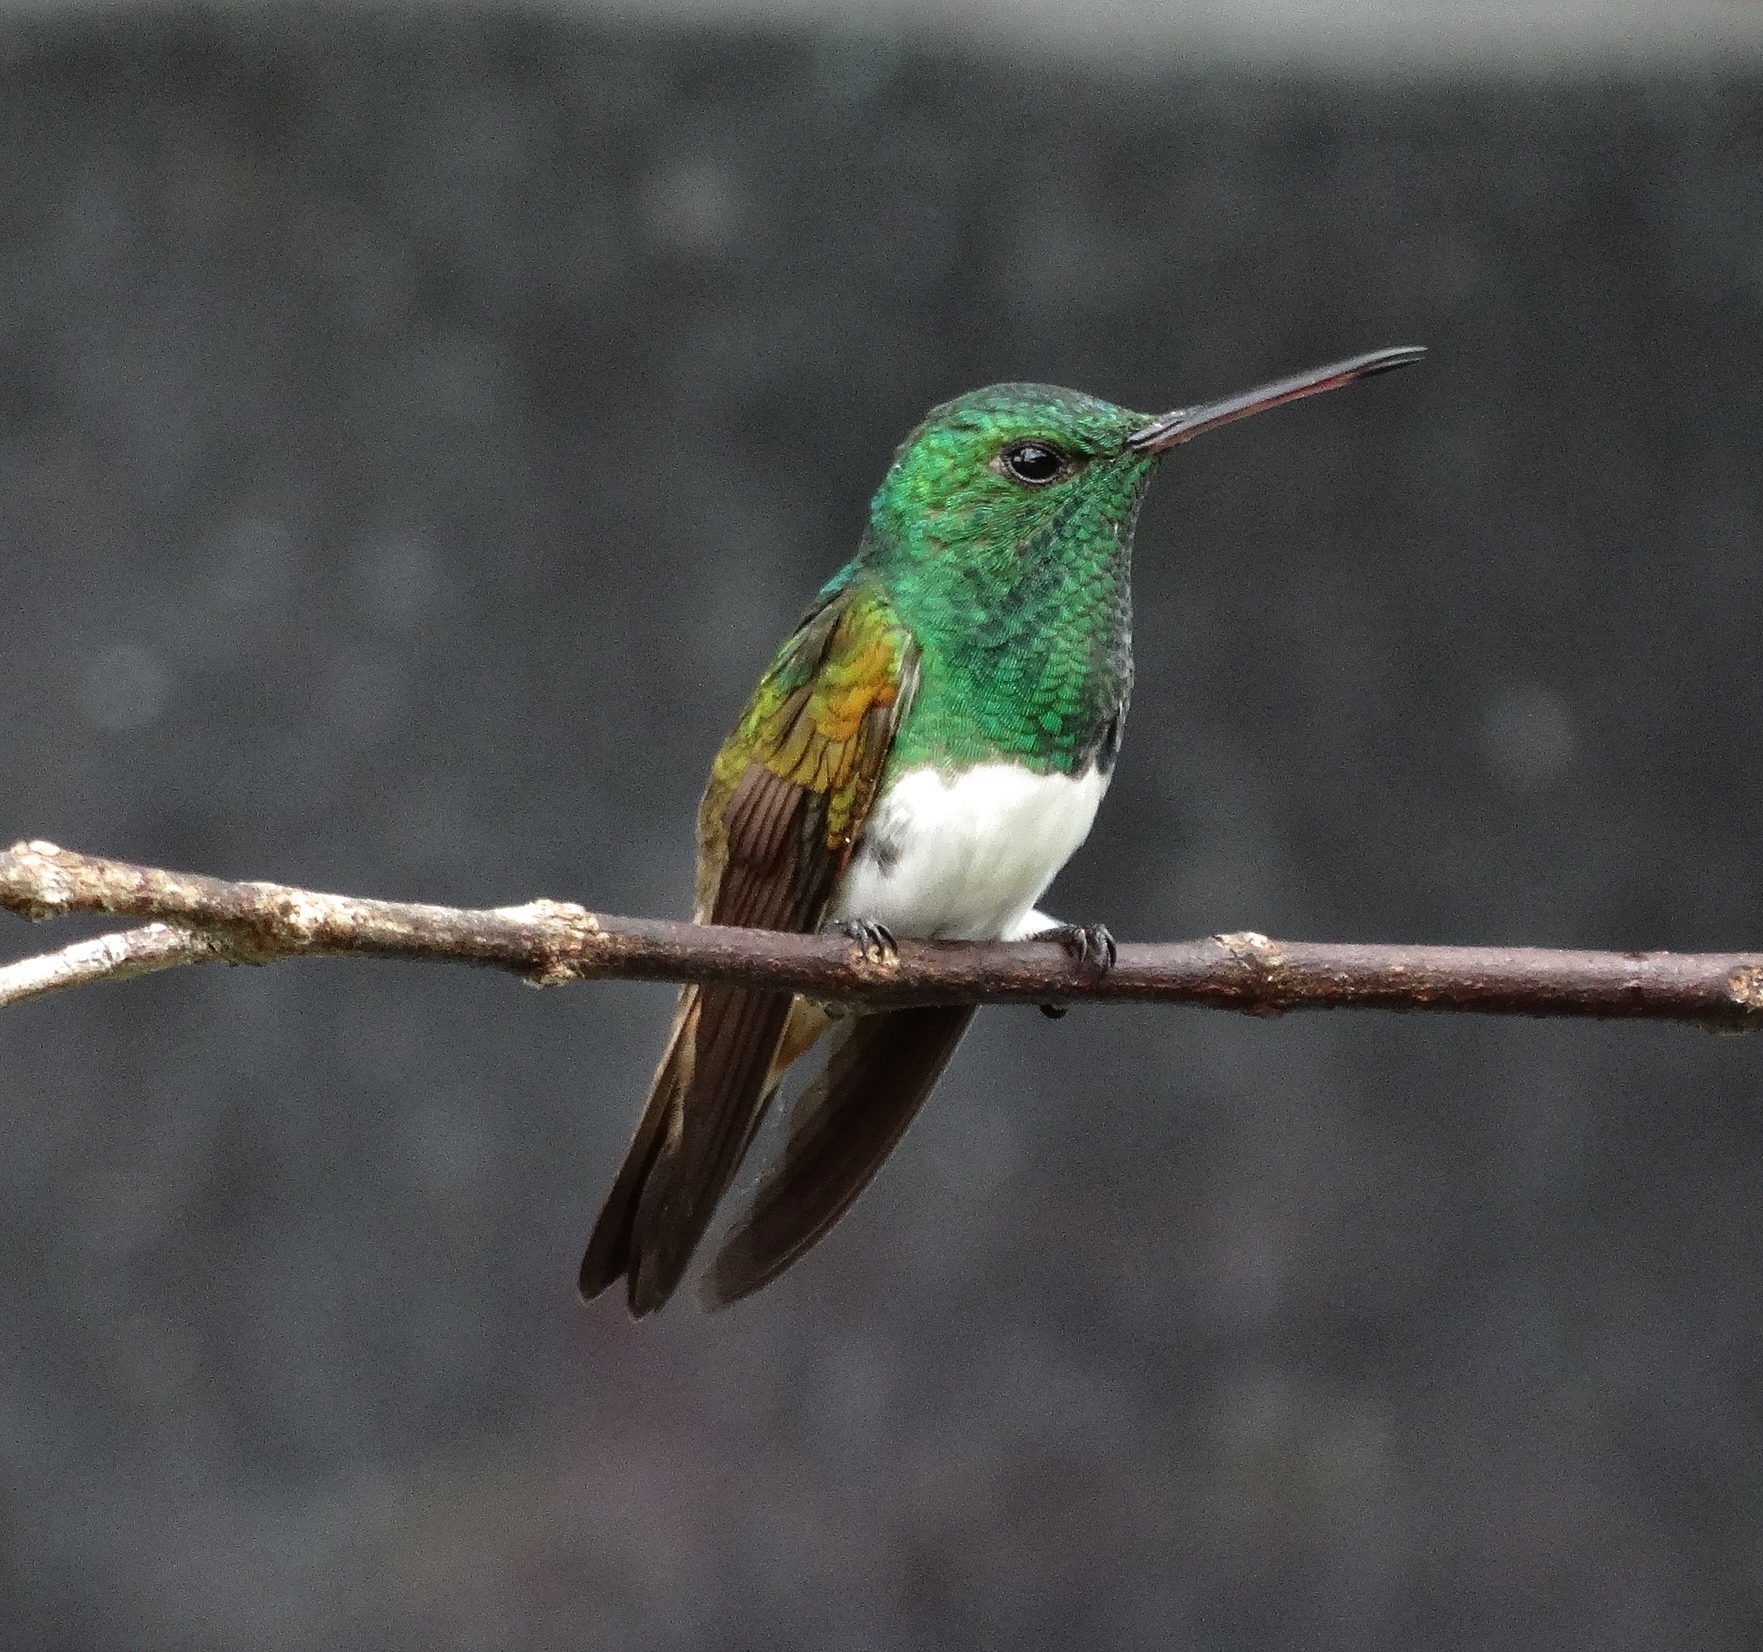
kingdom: Animalia
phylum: Chordata
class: Aves
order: Apodiformes
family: Trochilidae
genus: Saucerottia
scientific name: Saucerottia edward
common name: Snowy-bellied hummingbird
